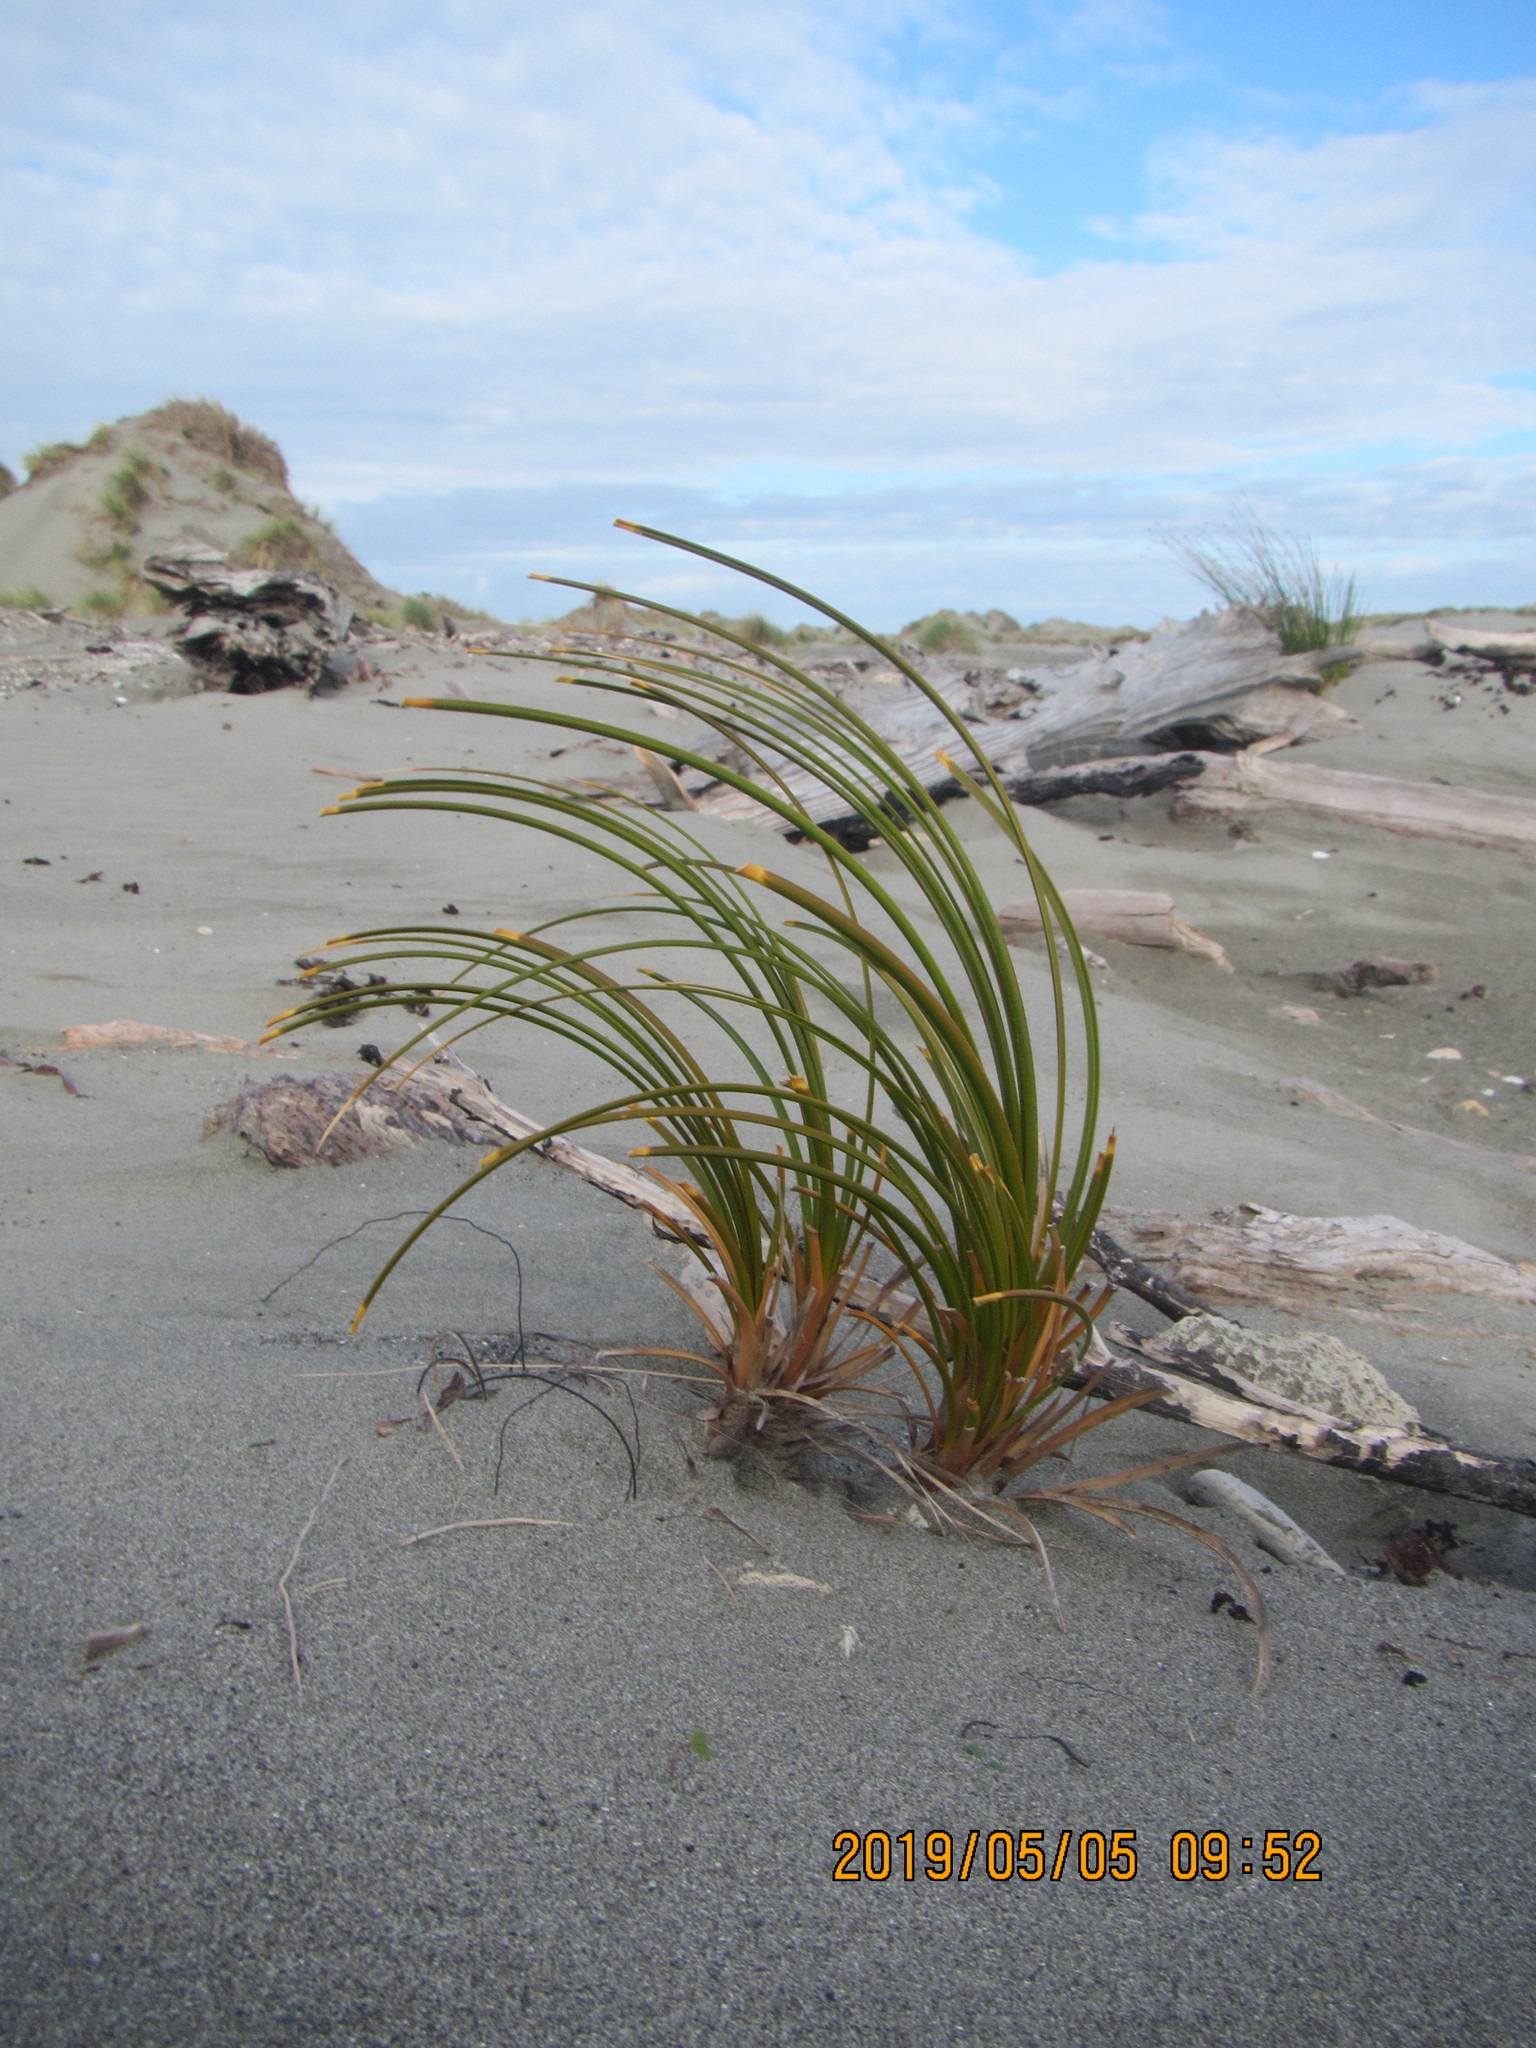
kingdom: Plantae
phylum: Tracheophyta
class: Liliopsida
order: Poales
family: Cyperaceae
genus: Ficinia
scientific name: Ficinia spiralis
